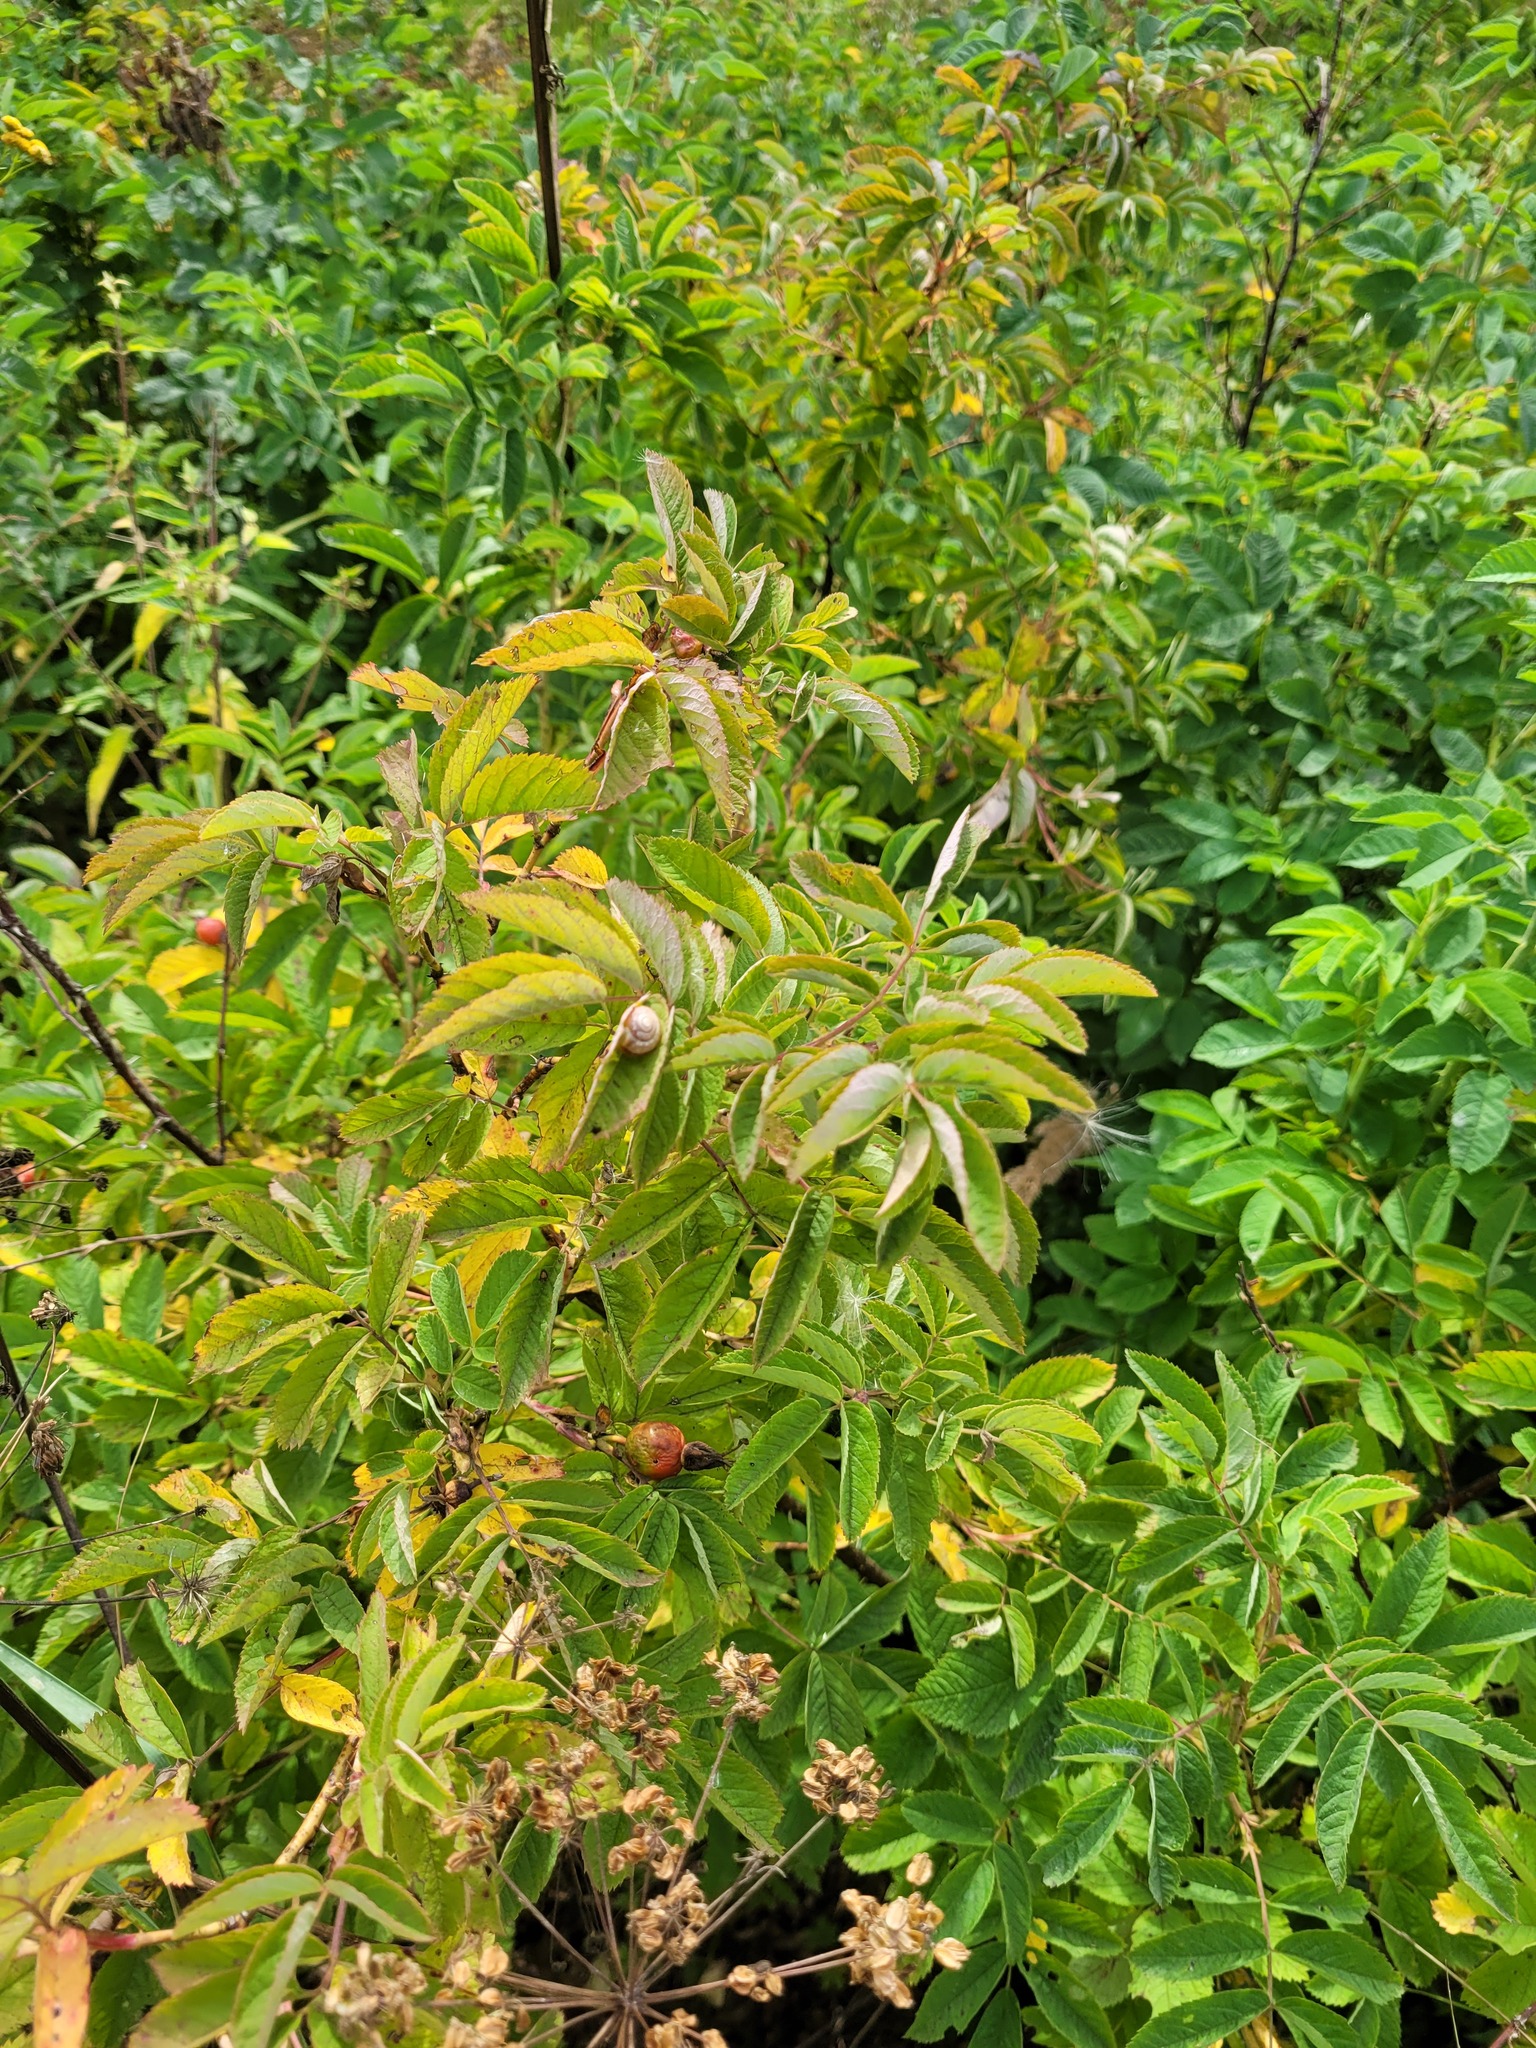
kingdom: Plantae
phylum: Tracheophyta
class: Magnoliopsida
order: Rosales
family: Rosaceae
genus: Rosa
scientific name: Rosa majalis
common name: Cinnamon rose
